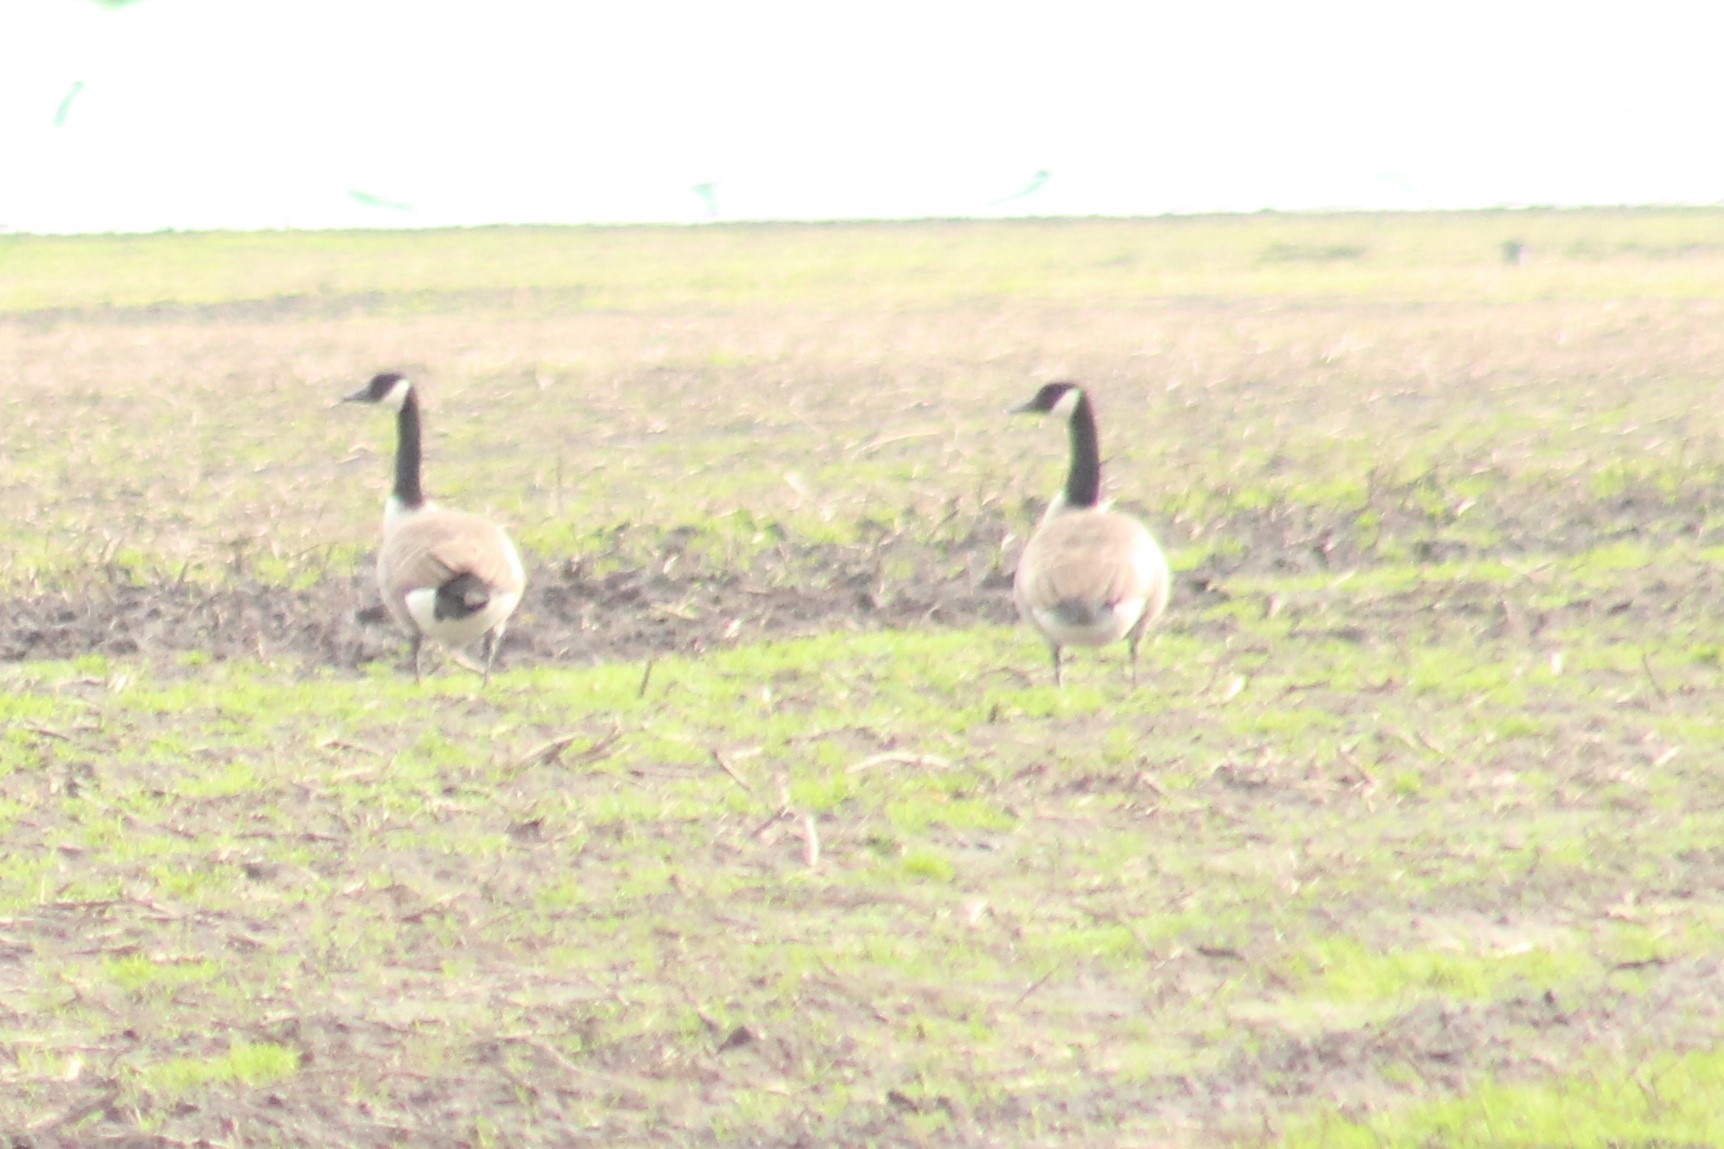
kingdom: Animalia
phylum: Chordata
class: Aves
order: Anseriformes
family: Anatidae
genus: Branta
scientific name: Branta canadensis
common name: Canada goose
